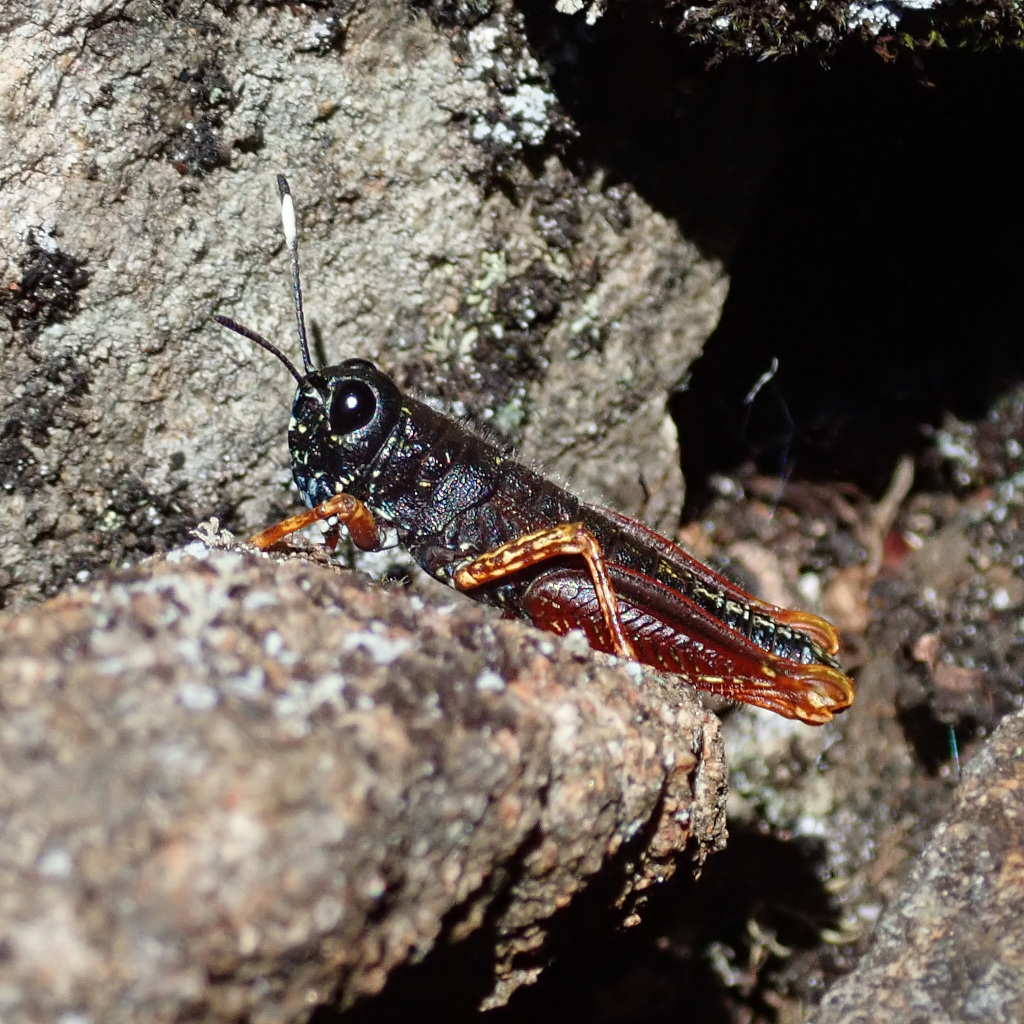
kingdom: Animalia
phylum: Arthropoda
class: Insecta
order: Orthoptera
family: Acrididae
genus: Tasmanalpina
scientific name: Tasmanalpina clavata
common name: Tasmanian velvet grasshopper
